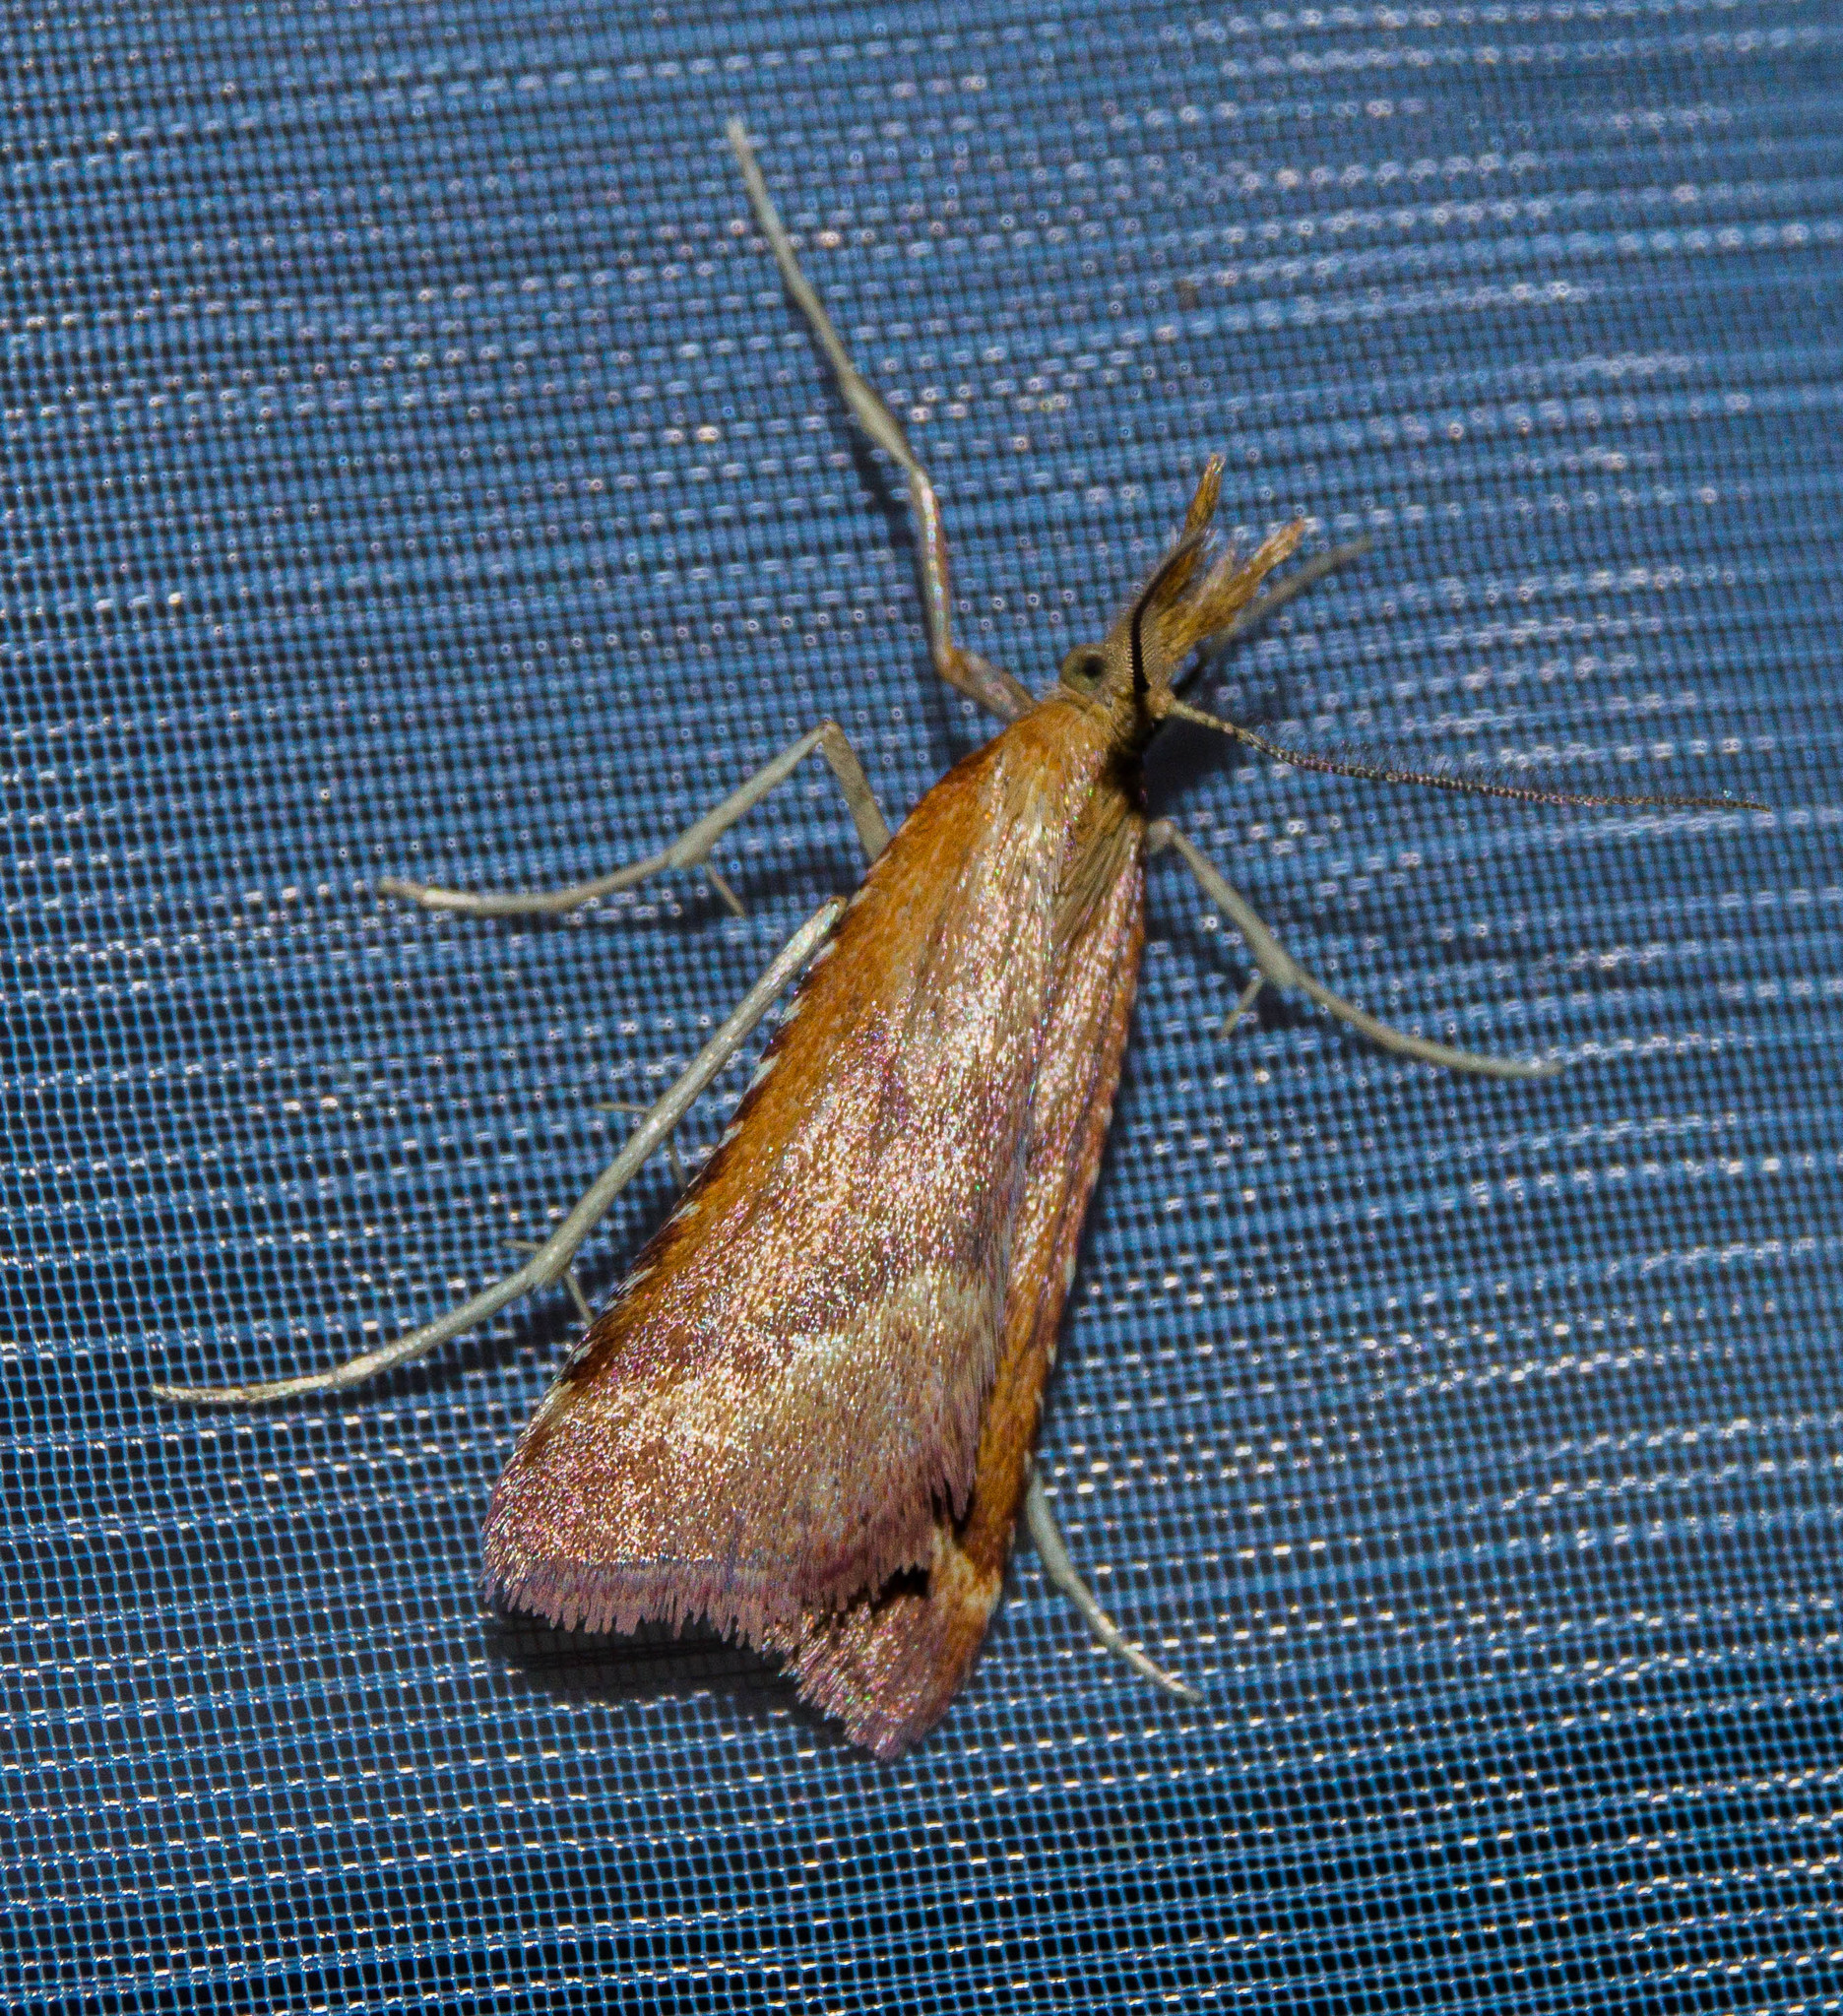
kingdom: Animalia
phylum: Arthropoda
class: Insecta
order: Lepidoptera
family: Pyralidae
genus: Synaphe
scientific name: Synaphe punctalis
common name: Long-legged tabby
